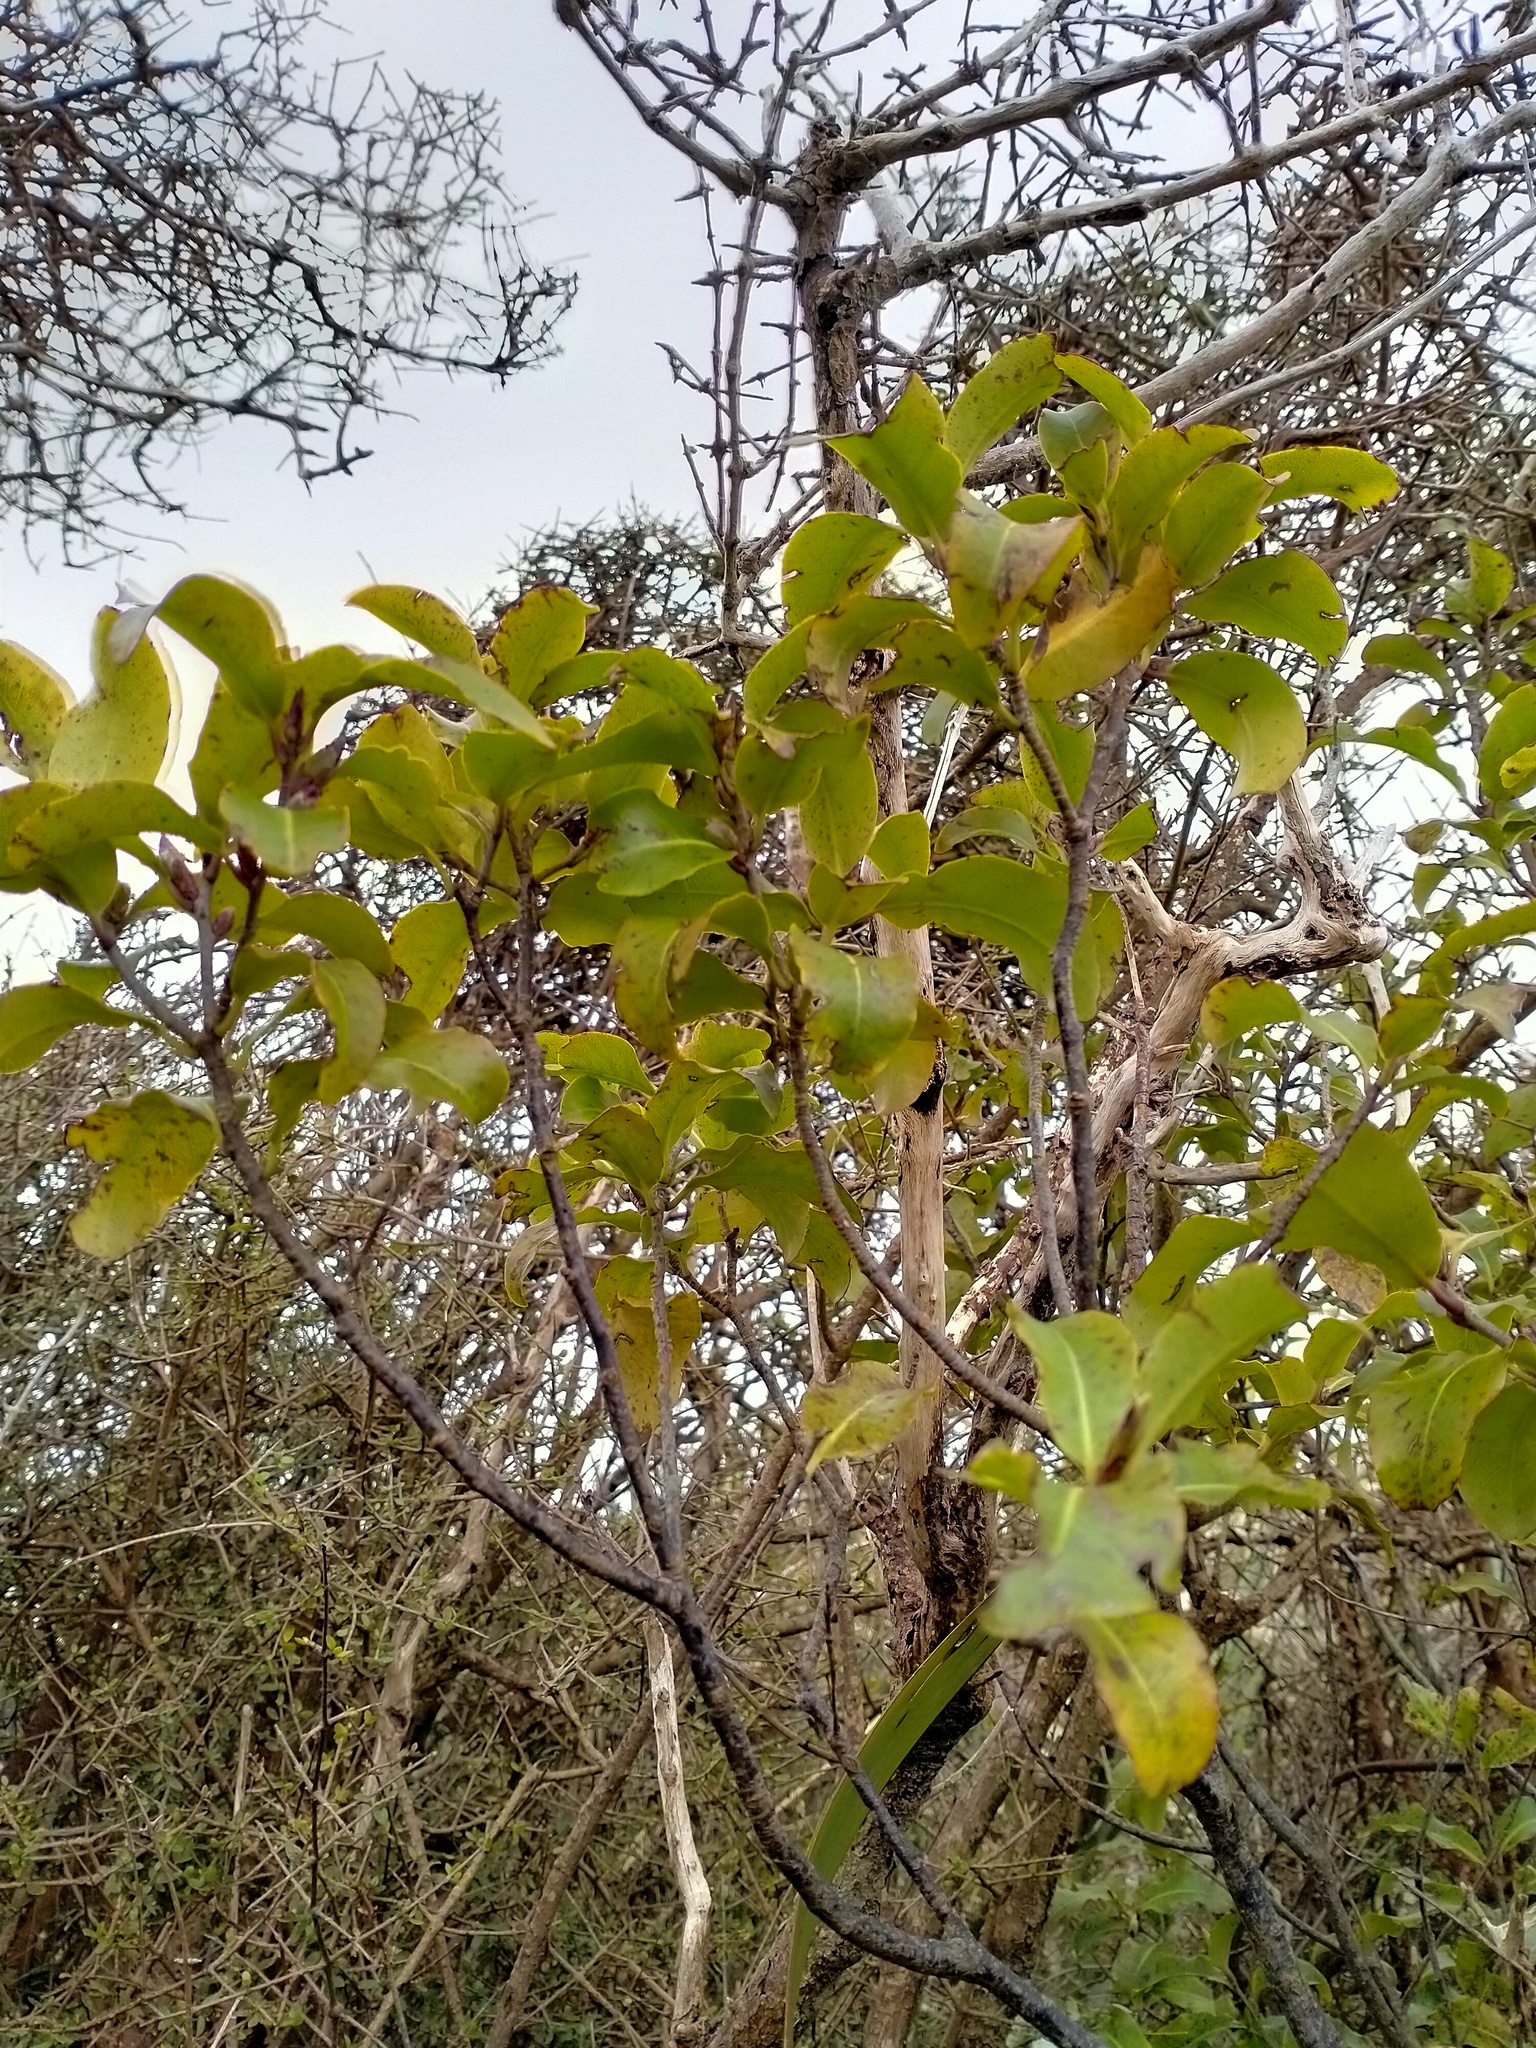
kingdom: Plantae
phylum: Tracheophyta
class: Magnoliopsida
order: Apiales
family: Pittosporaceae
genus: Pittosporum
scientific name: Pittosporum tenuifolium
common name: Kohuhu
